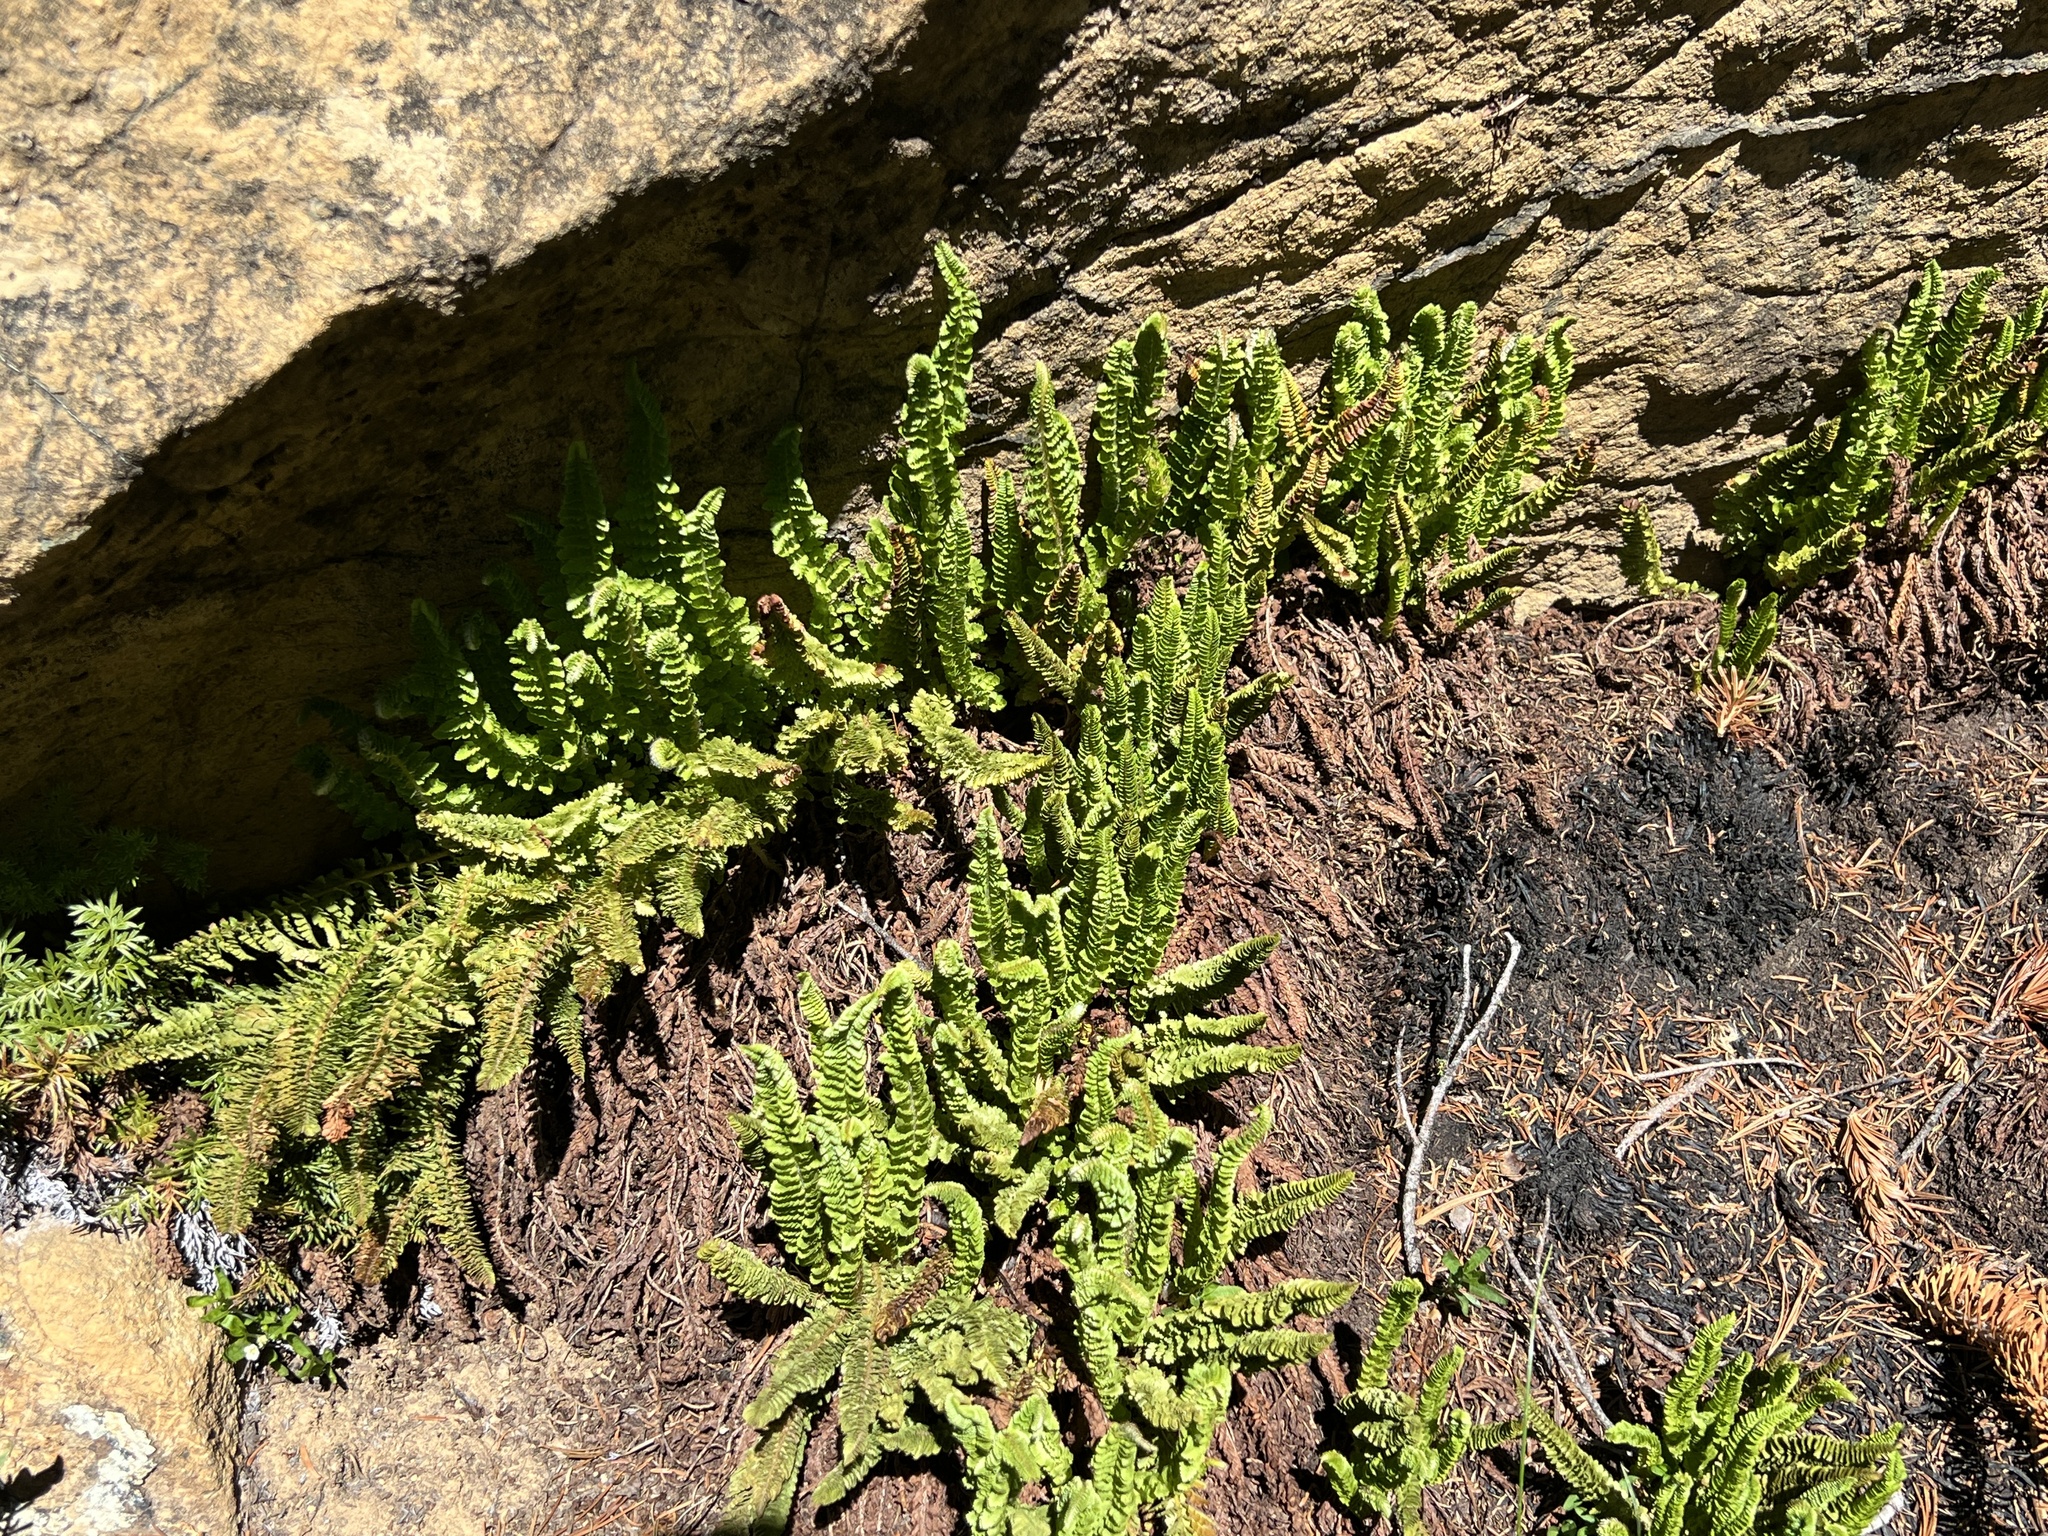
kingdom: Plantae
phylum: Tracheophyta
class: Polypodiopsida
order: Polypodiales
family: Dryopteridaceae
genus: Polystichum
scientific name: Polystichum lemmonii
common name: Lemmon's holly fern
